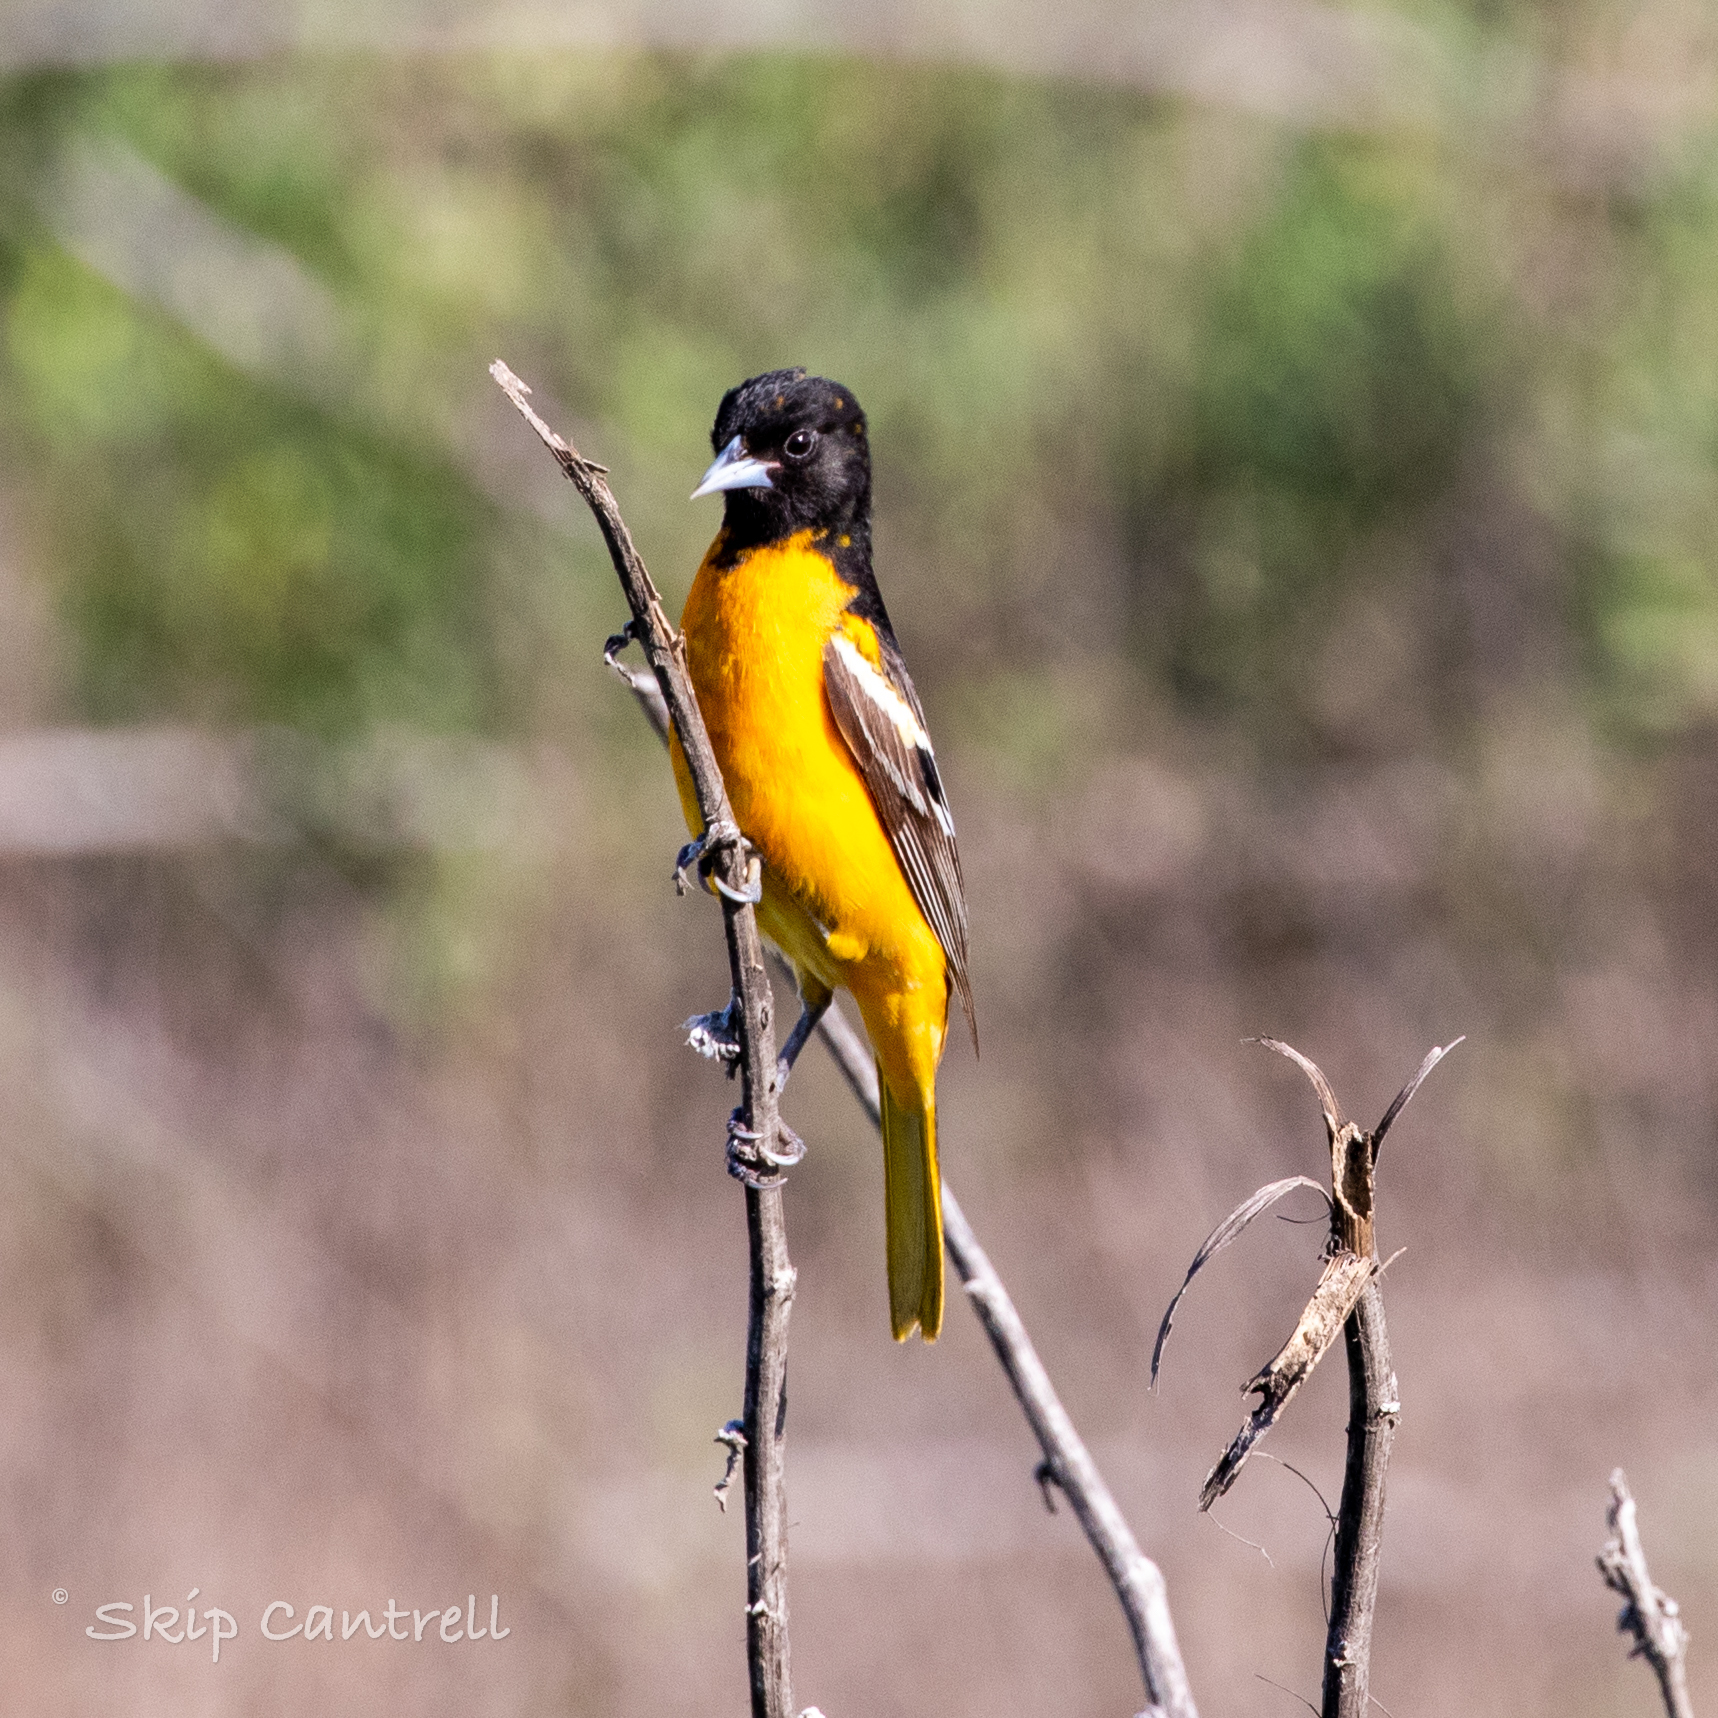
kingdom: Animalia
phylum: Chordata
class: Aves
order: Passeriformes
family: Icteridae
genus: Icterus
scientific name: Icterus galbula
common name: Baltimore oriole
